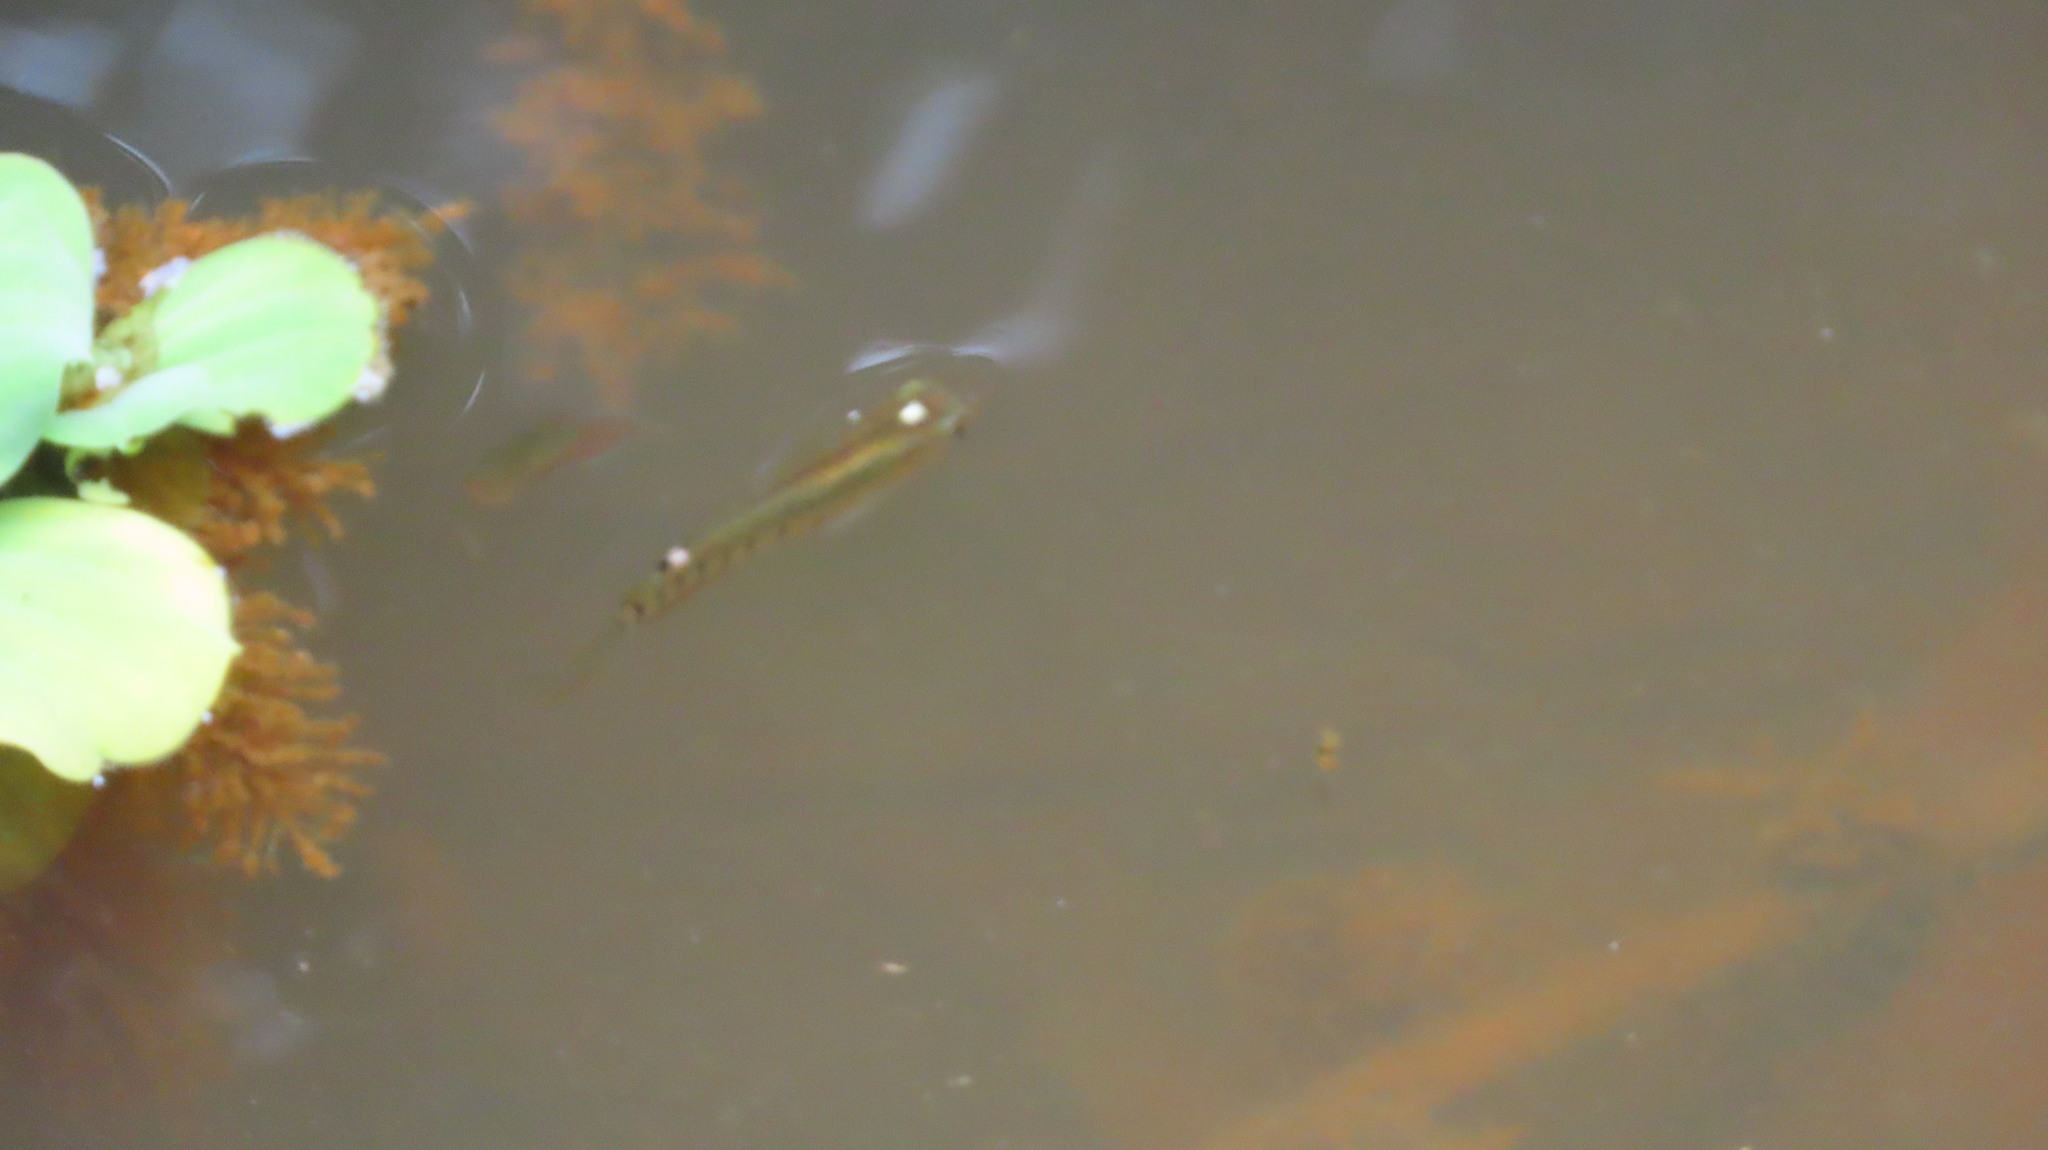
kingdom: Animalia
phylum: Chordata
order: Cyprinodontiformes
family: Aplocheilidae
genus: Aplocheilus
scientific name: Aplocheilus lineatus
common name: Striped panchax
